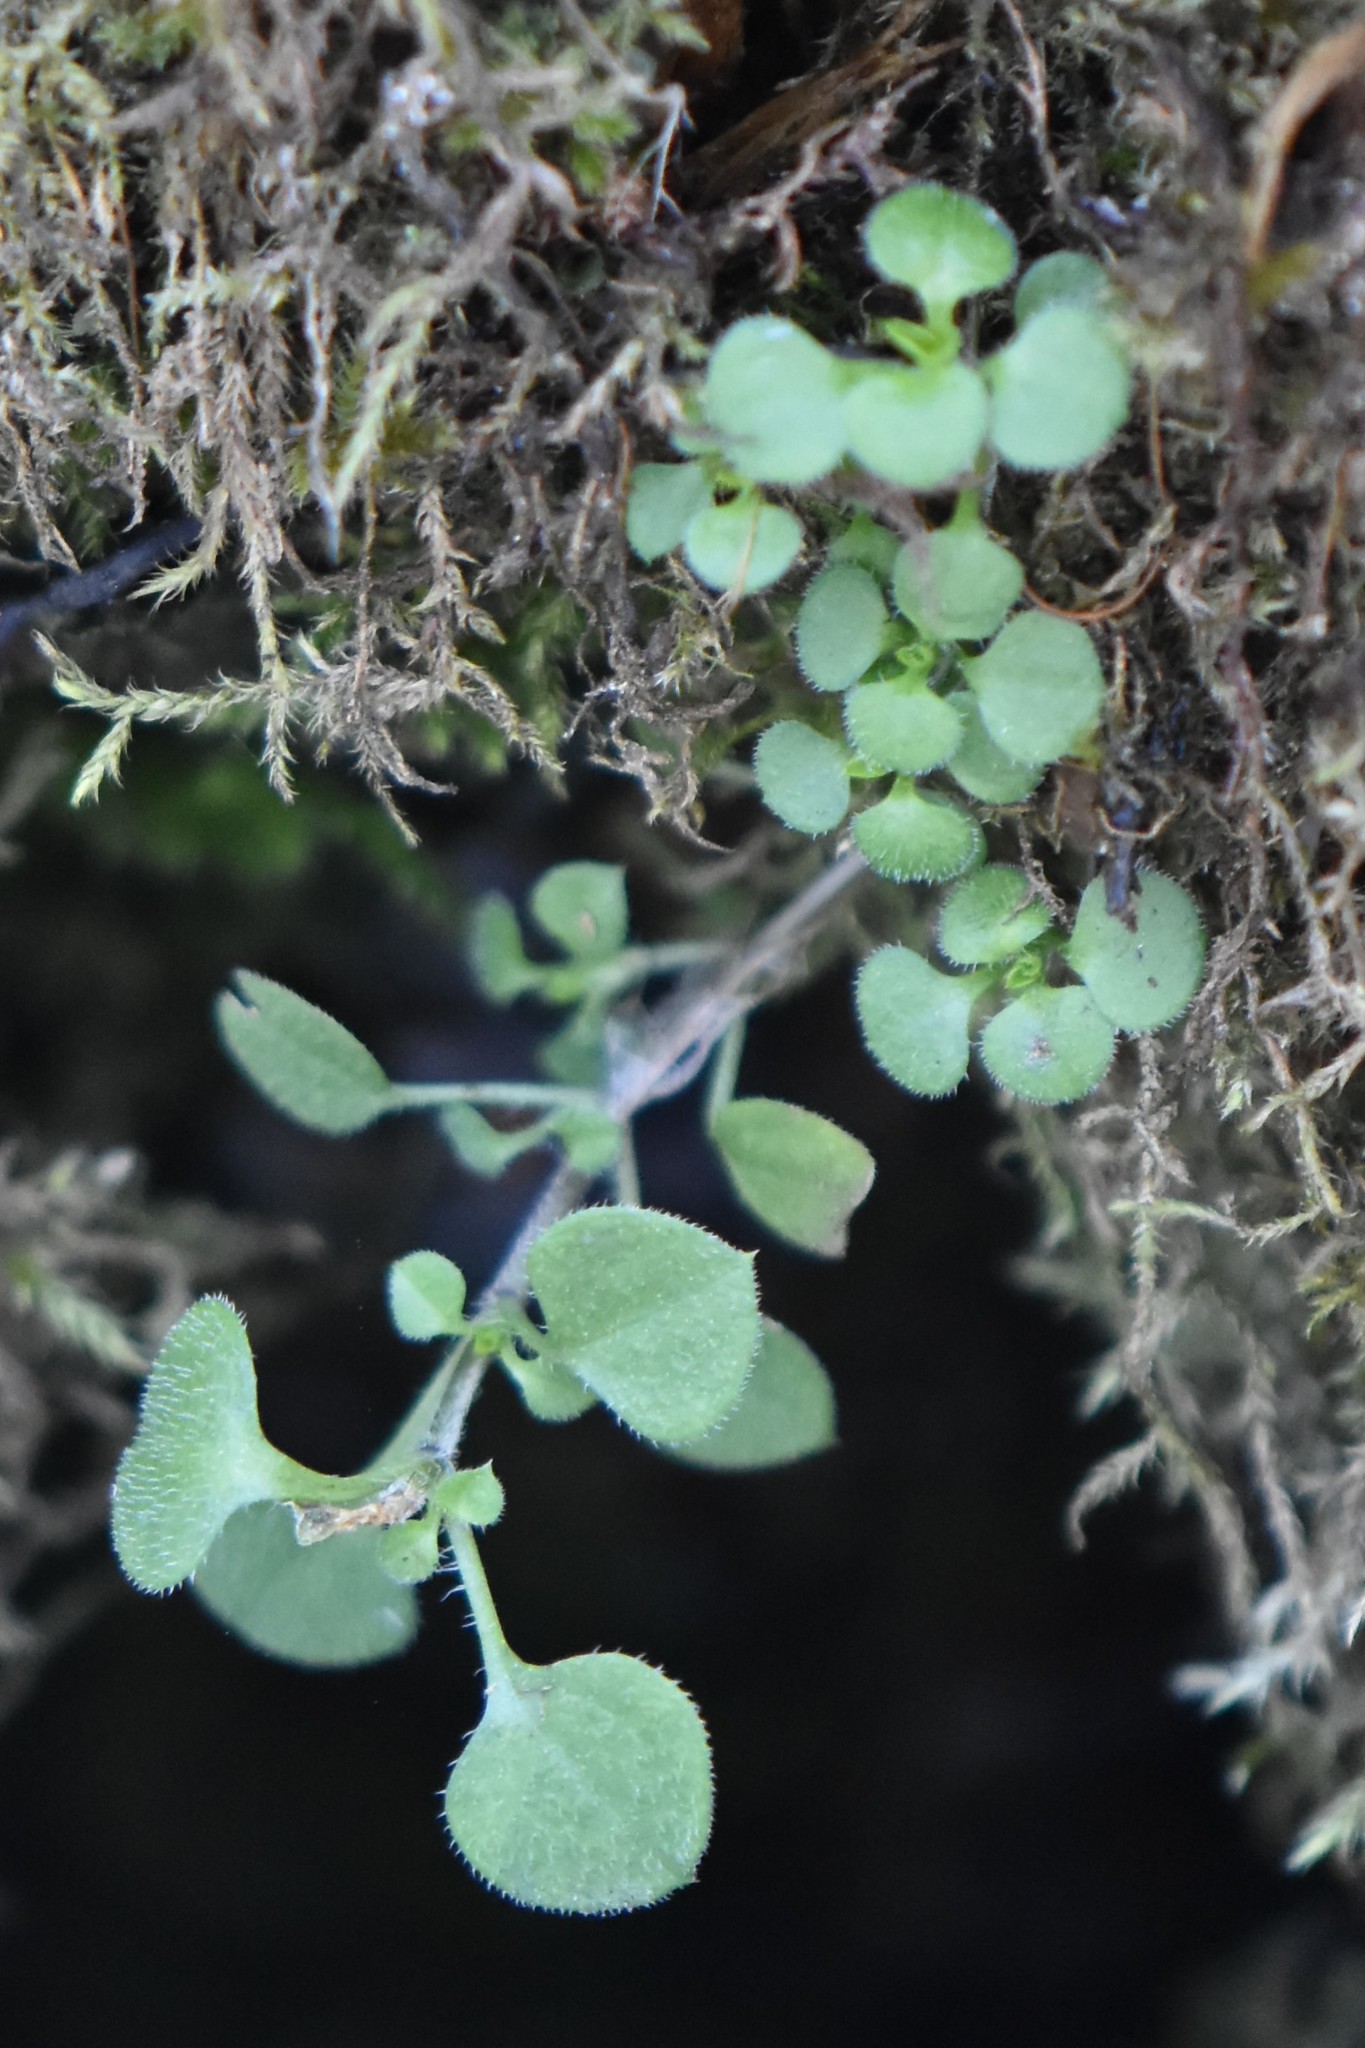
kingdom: Plantae
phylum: Tracheophyta
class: Magnoliopsida
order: Caryophyllales
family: Caryophyllaceae
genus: Moehringia
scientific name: Moehringia trinervia
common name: Three-nerved sandwort
